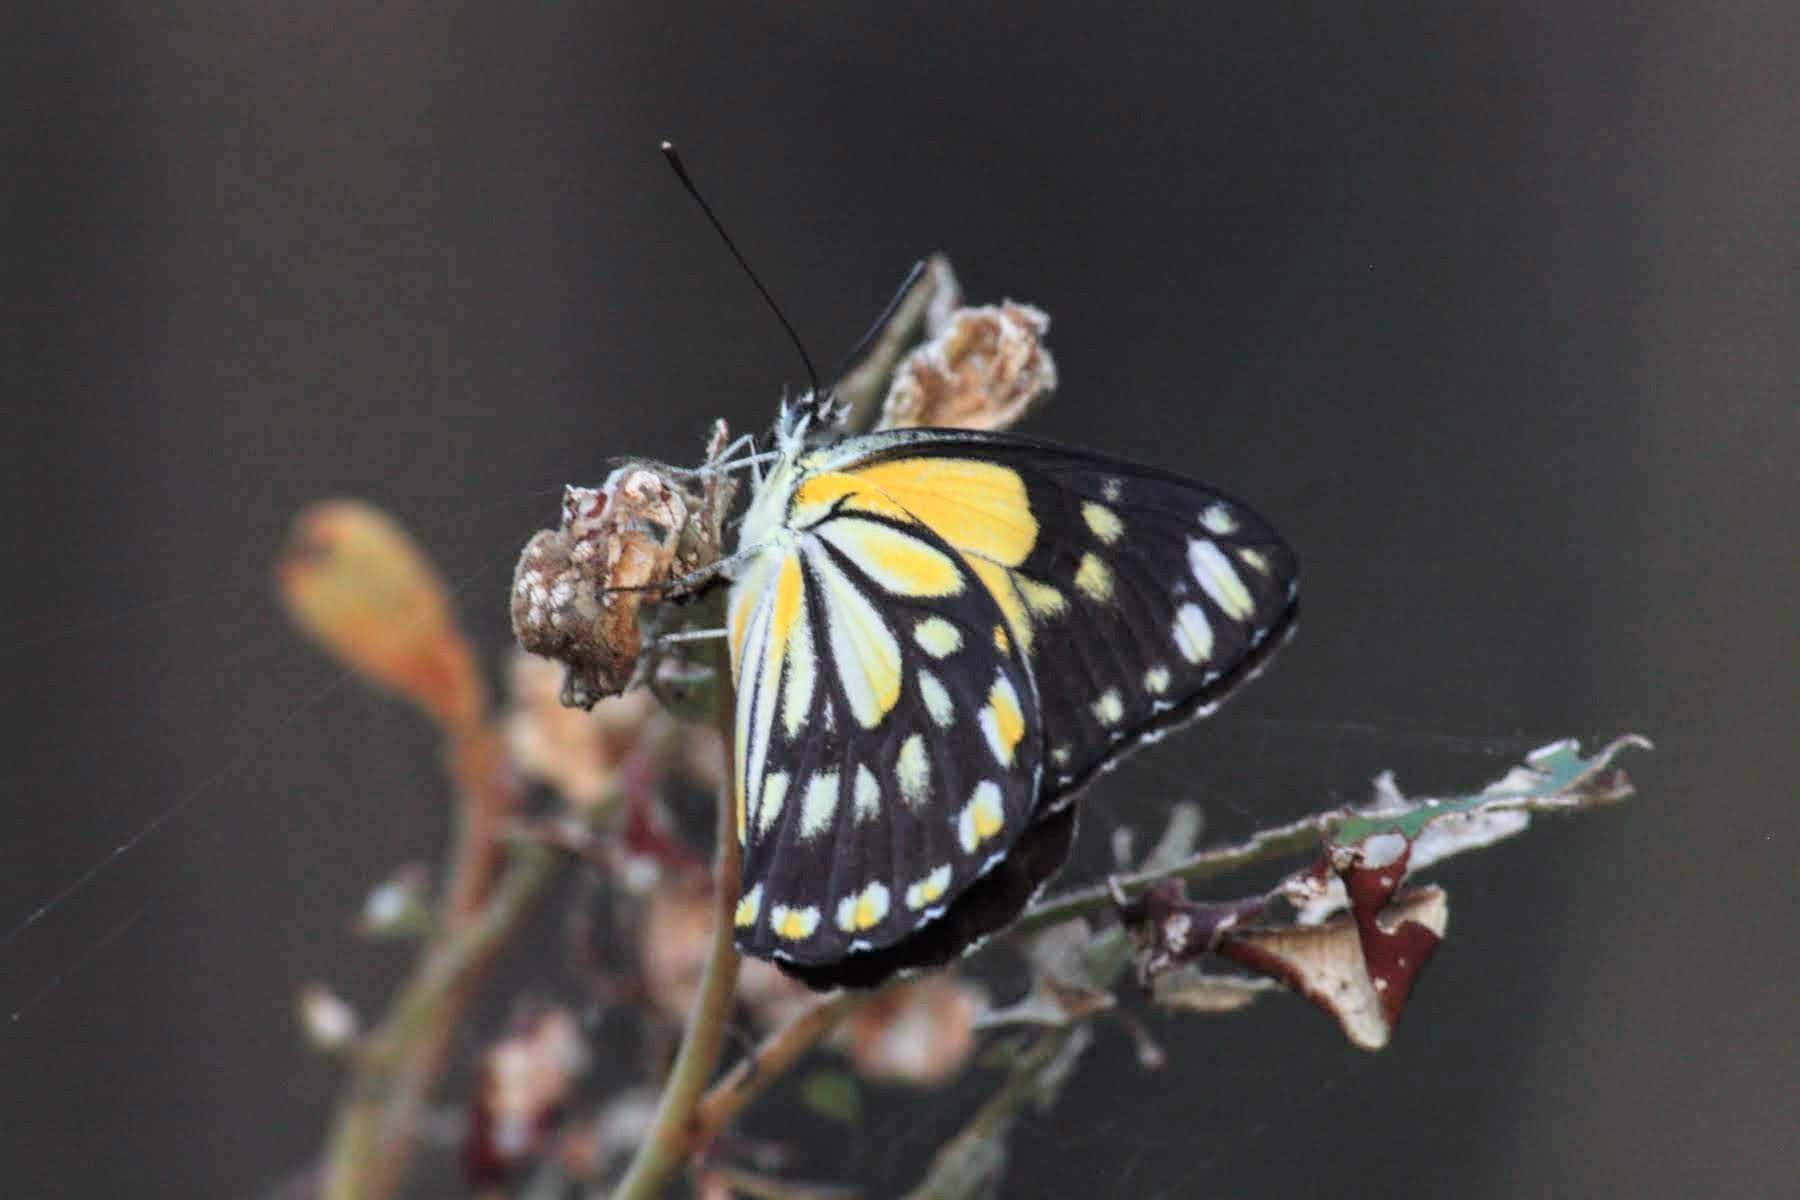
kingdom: Animalia
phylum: Arthropoda
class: Insecta
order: Lepidoptera
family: Pieridae
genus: Belenois
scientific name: Belenois java
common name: Caper white
